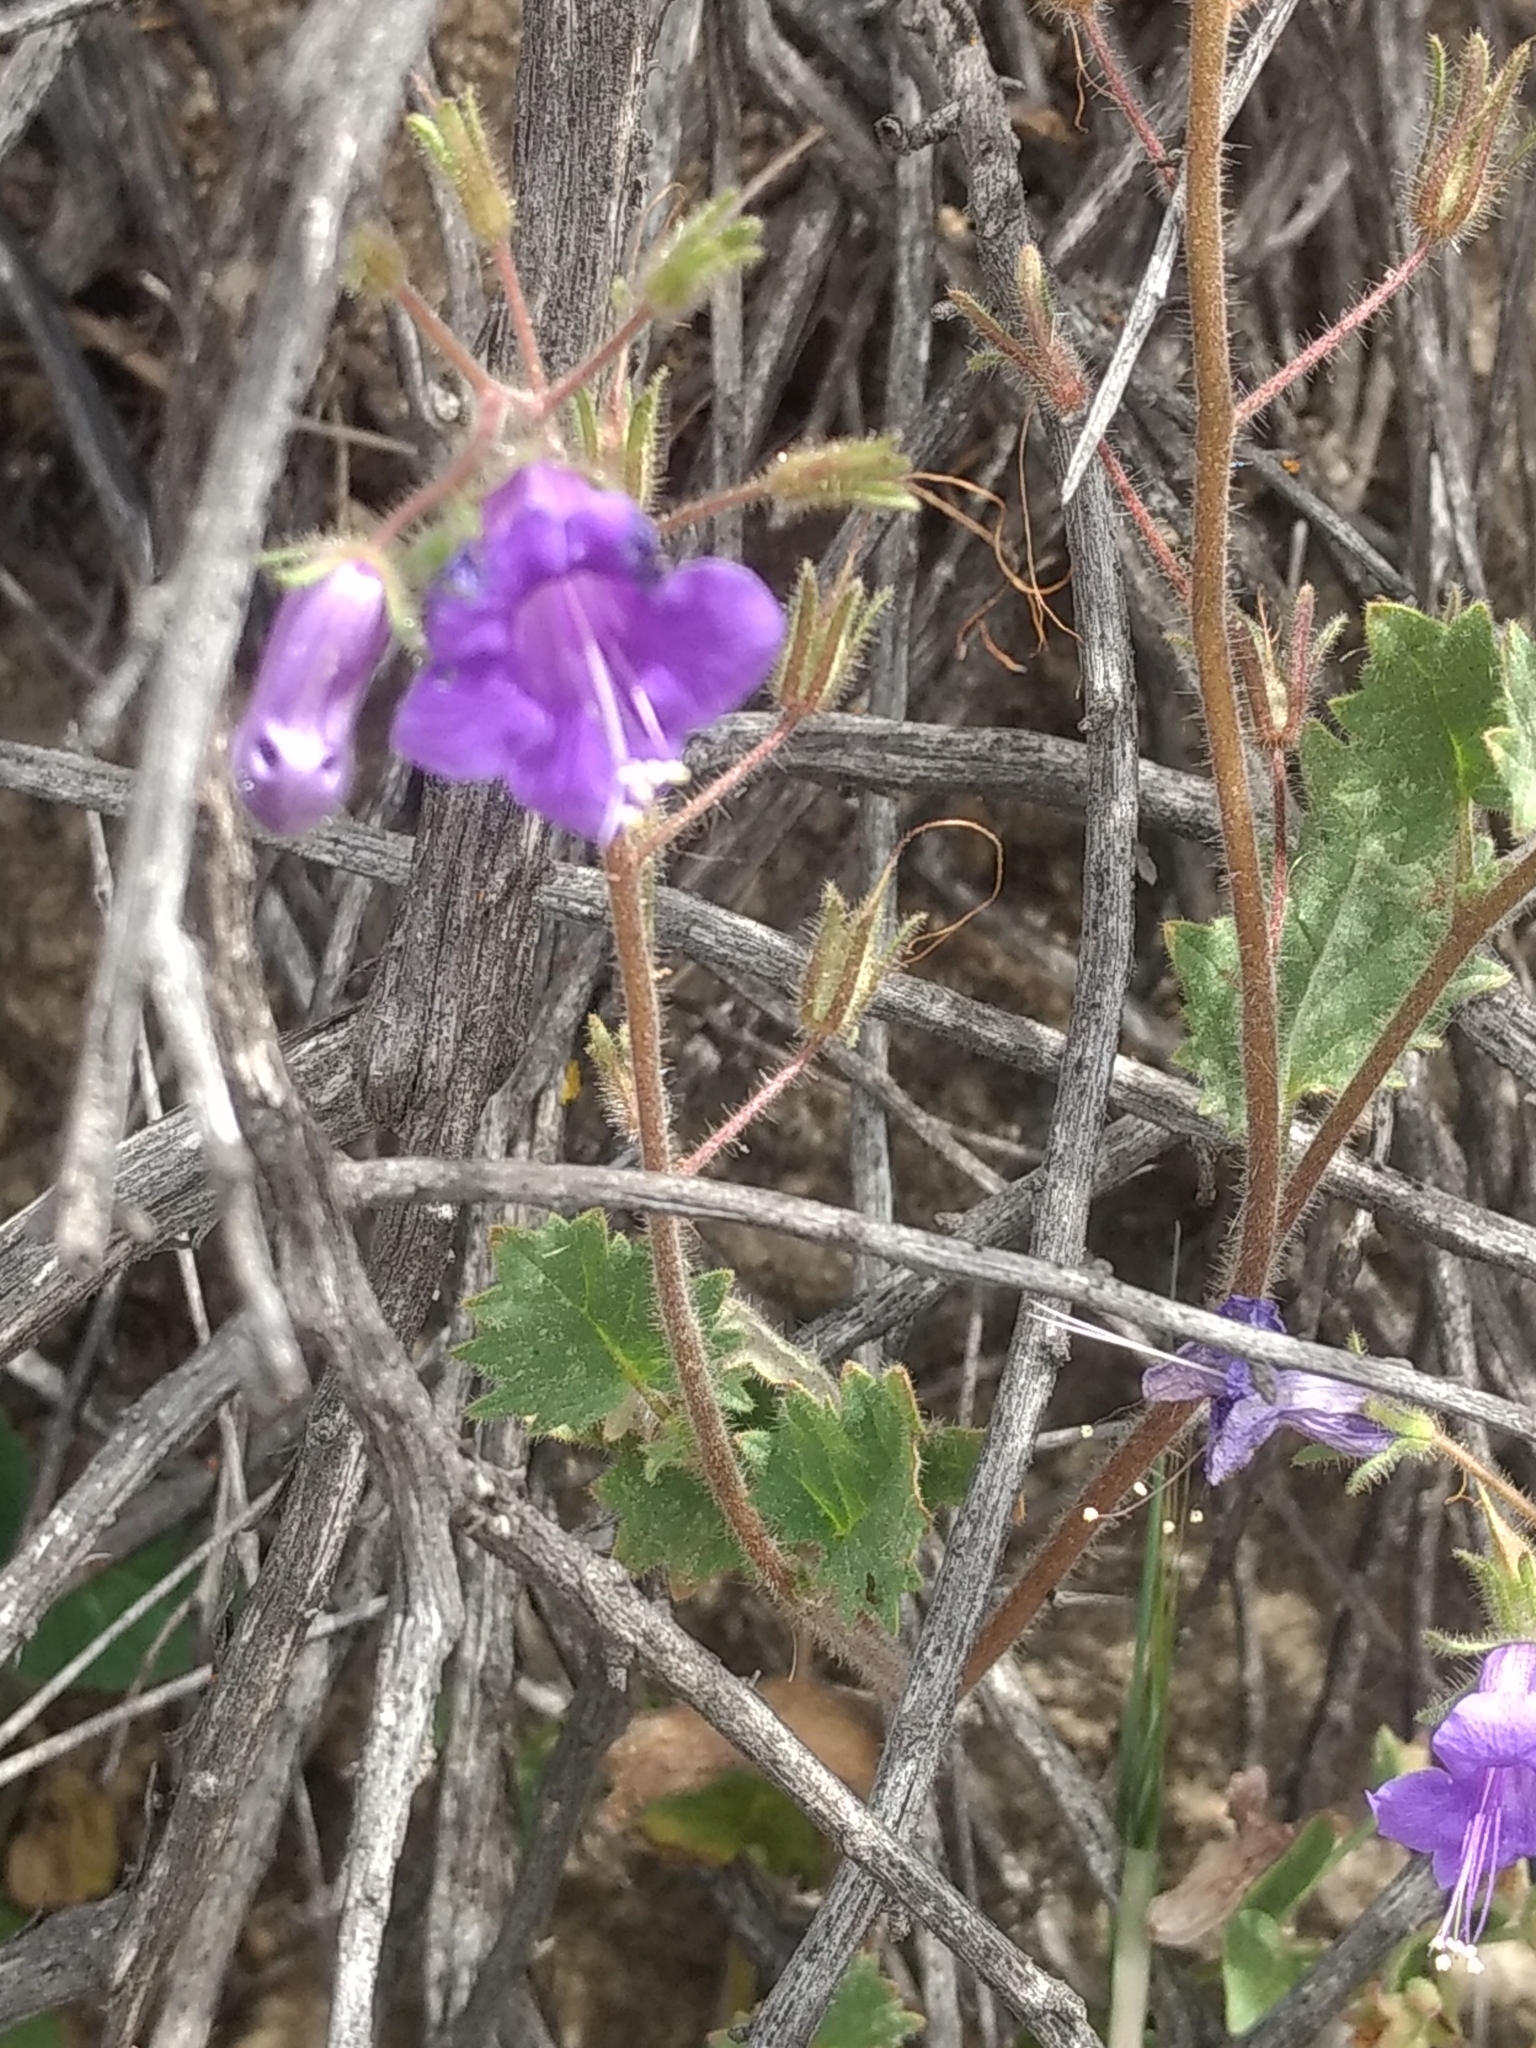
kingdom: Plantae
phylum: Tracheophyta
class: Magnoliopsida
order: Boraginales
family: Hydrophyllaceae
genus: Phacelia
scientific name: Phacelia minor
